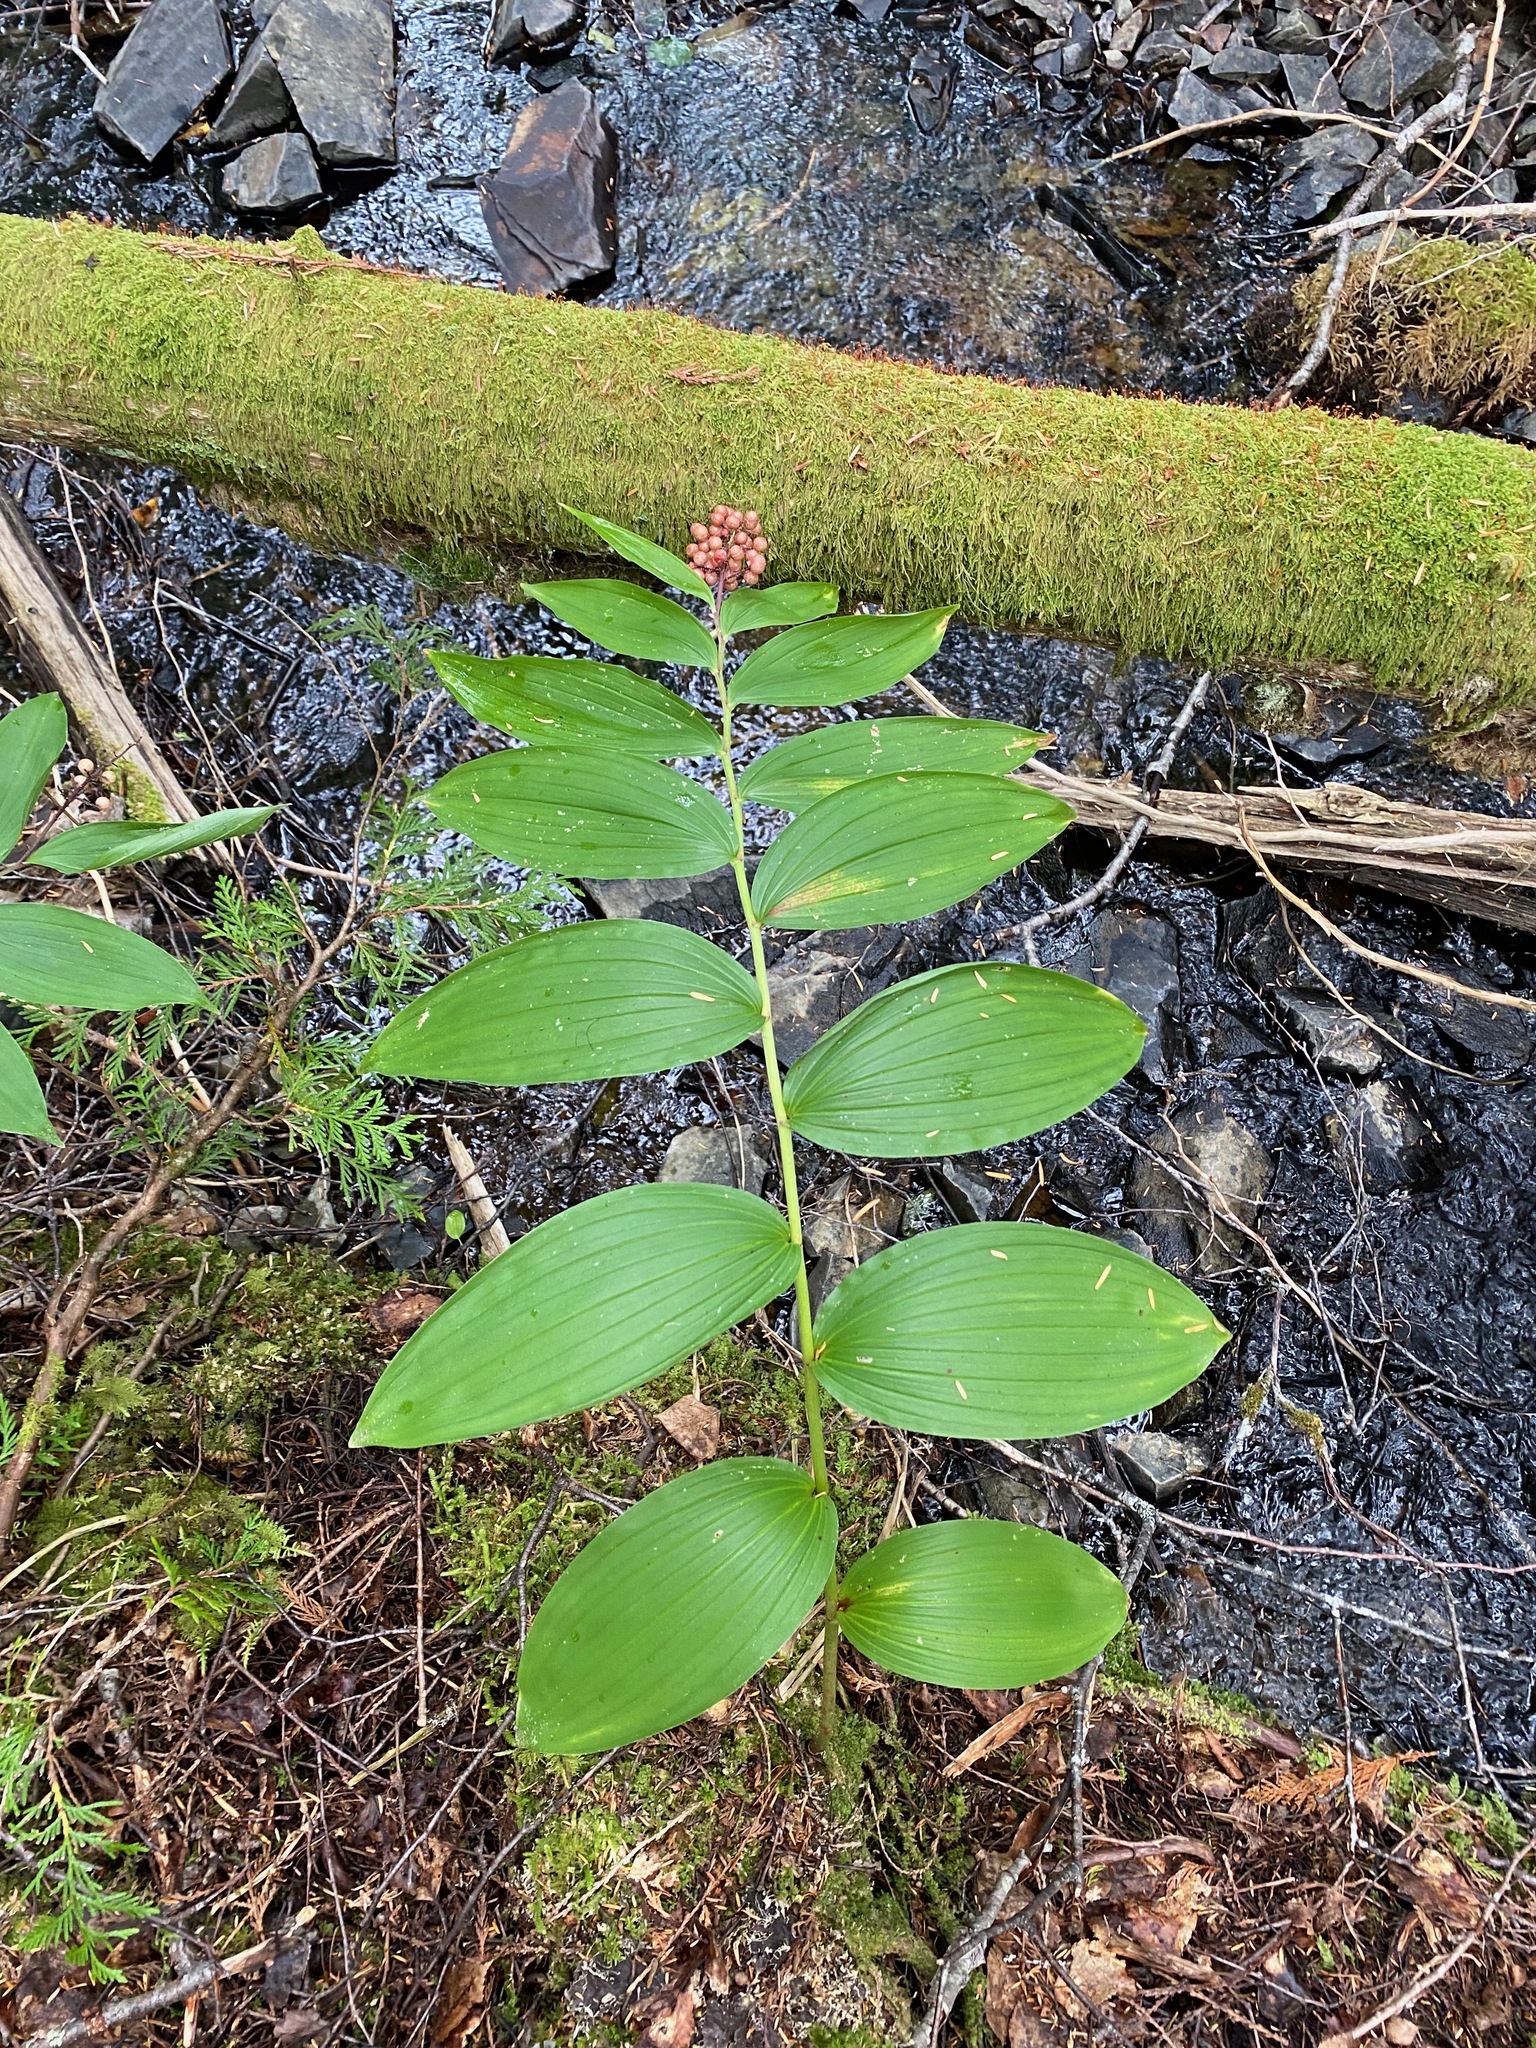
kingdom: Plantae
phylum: Tracheophyta
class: Liliopsida
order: Asparagales
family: Asparagaceae
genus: Maianthemum
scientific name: Maianthemum racemosum
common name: False spikenard
